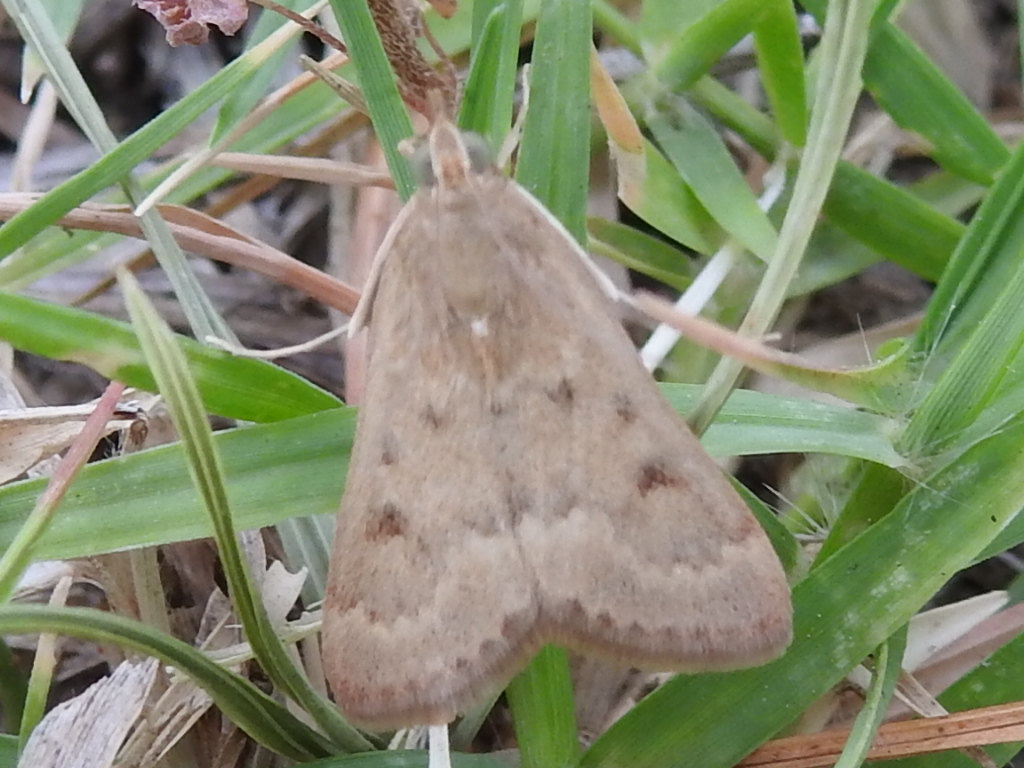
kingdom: Animalia
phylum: Arthropoda
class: Insecta
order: Lepidoptera
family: Crambidae
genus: Achyra
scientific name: Achyra rantalis
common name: Garden webworm
